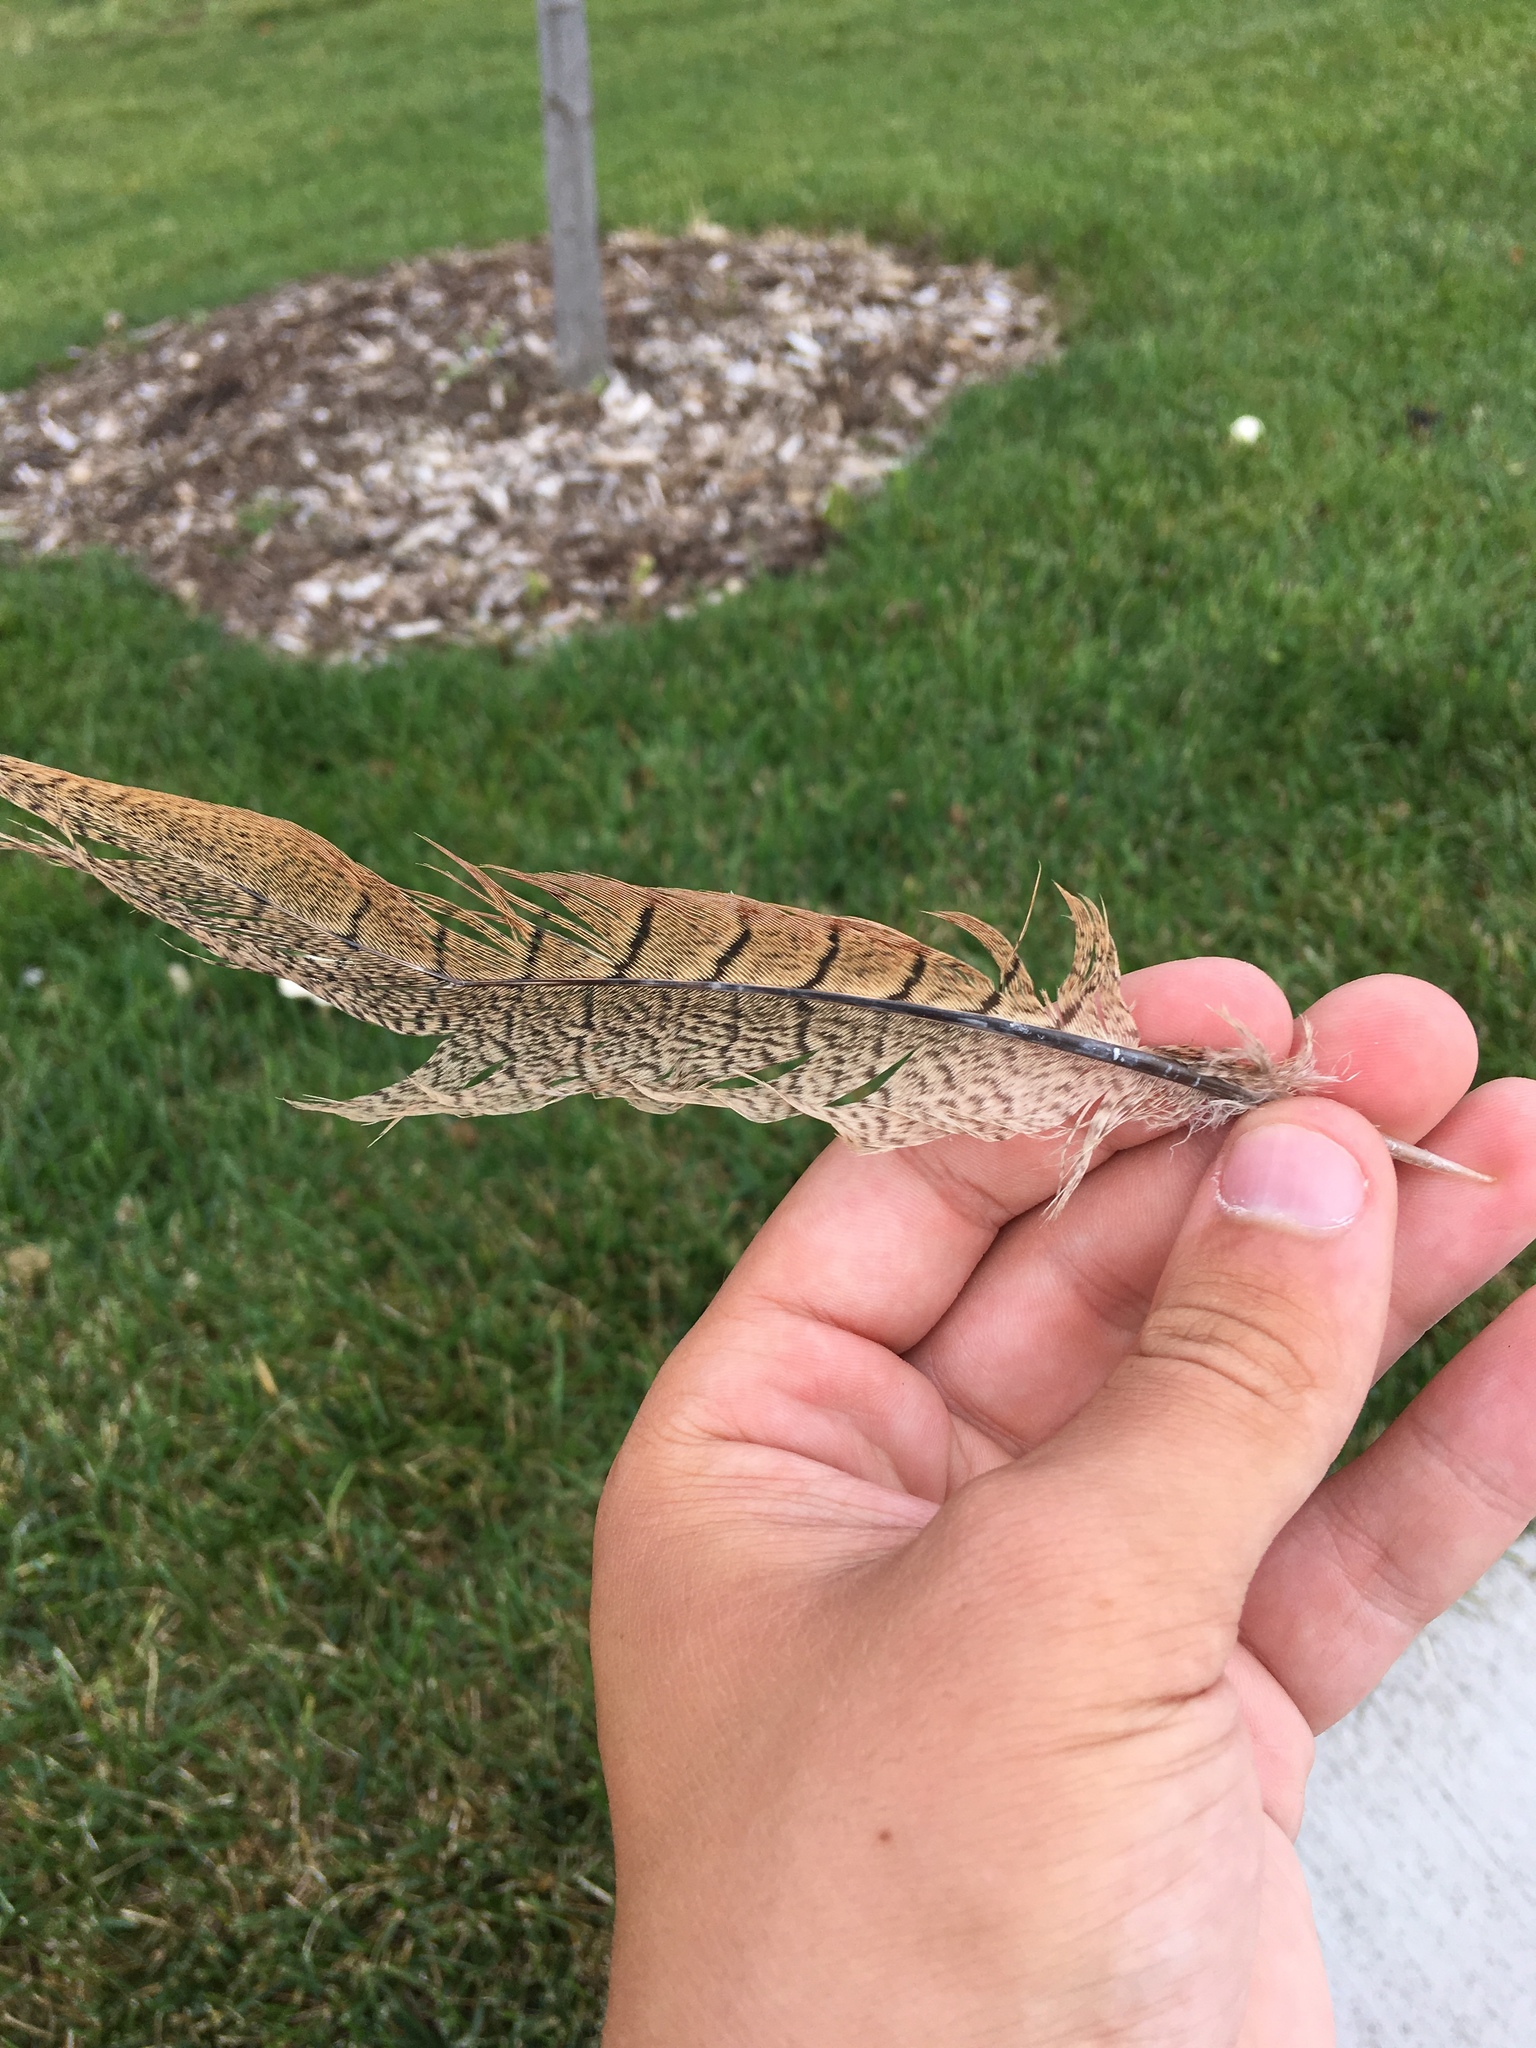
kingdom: Animalia
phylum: Chordata
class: Aves
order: Galliformes
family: Phasianidae
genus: Phasianus
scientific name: Phasianus colchicus
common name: Common pheasant
